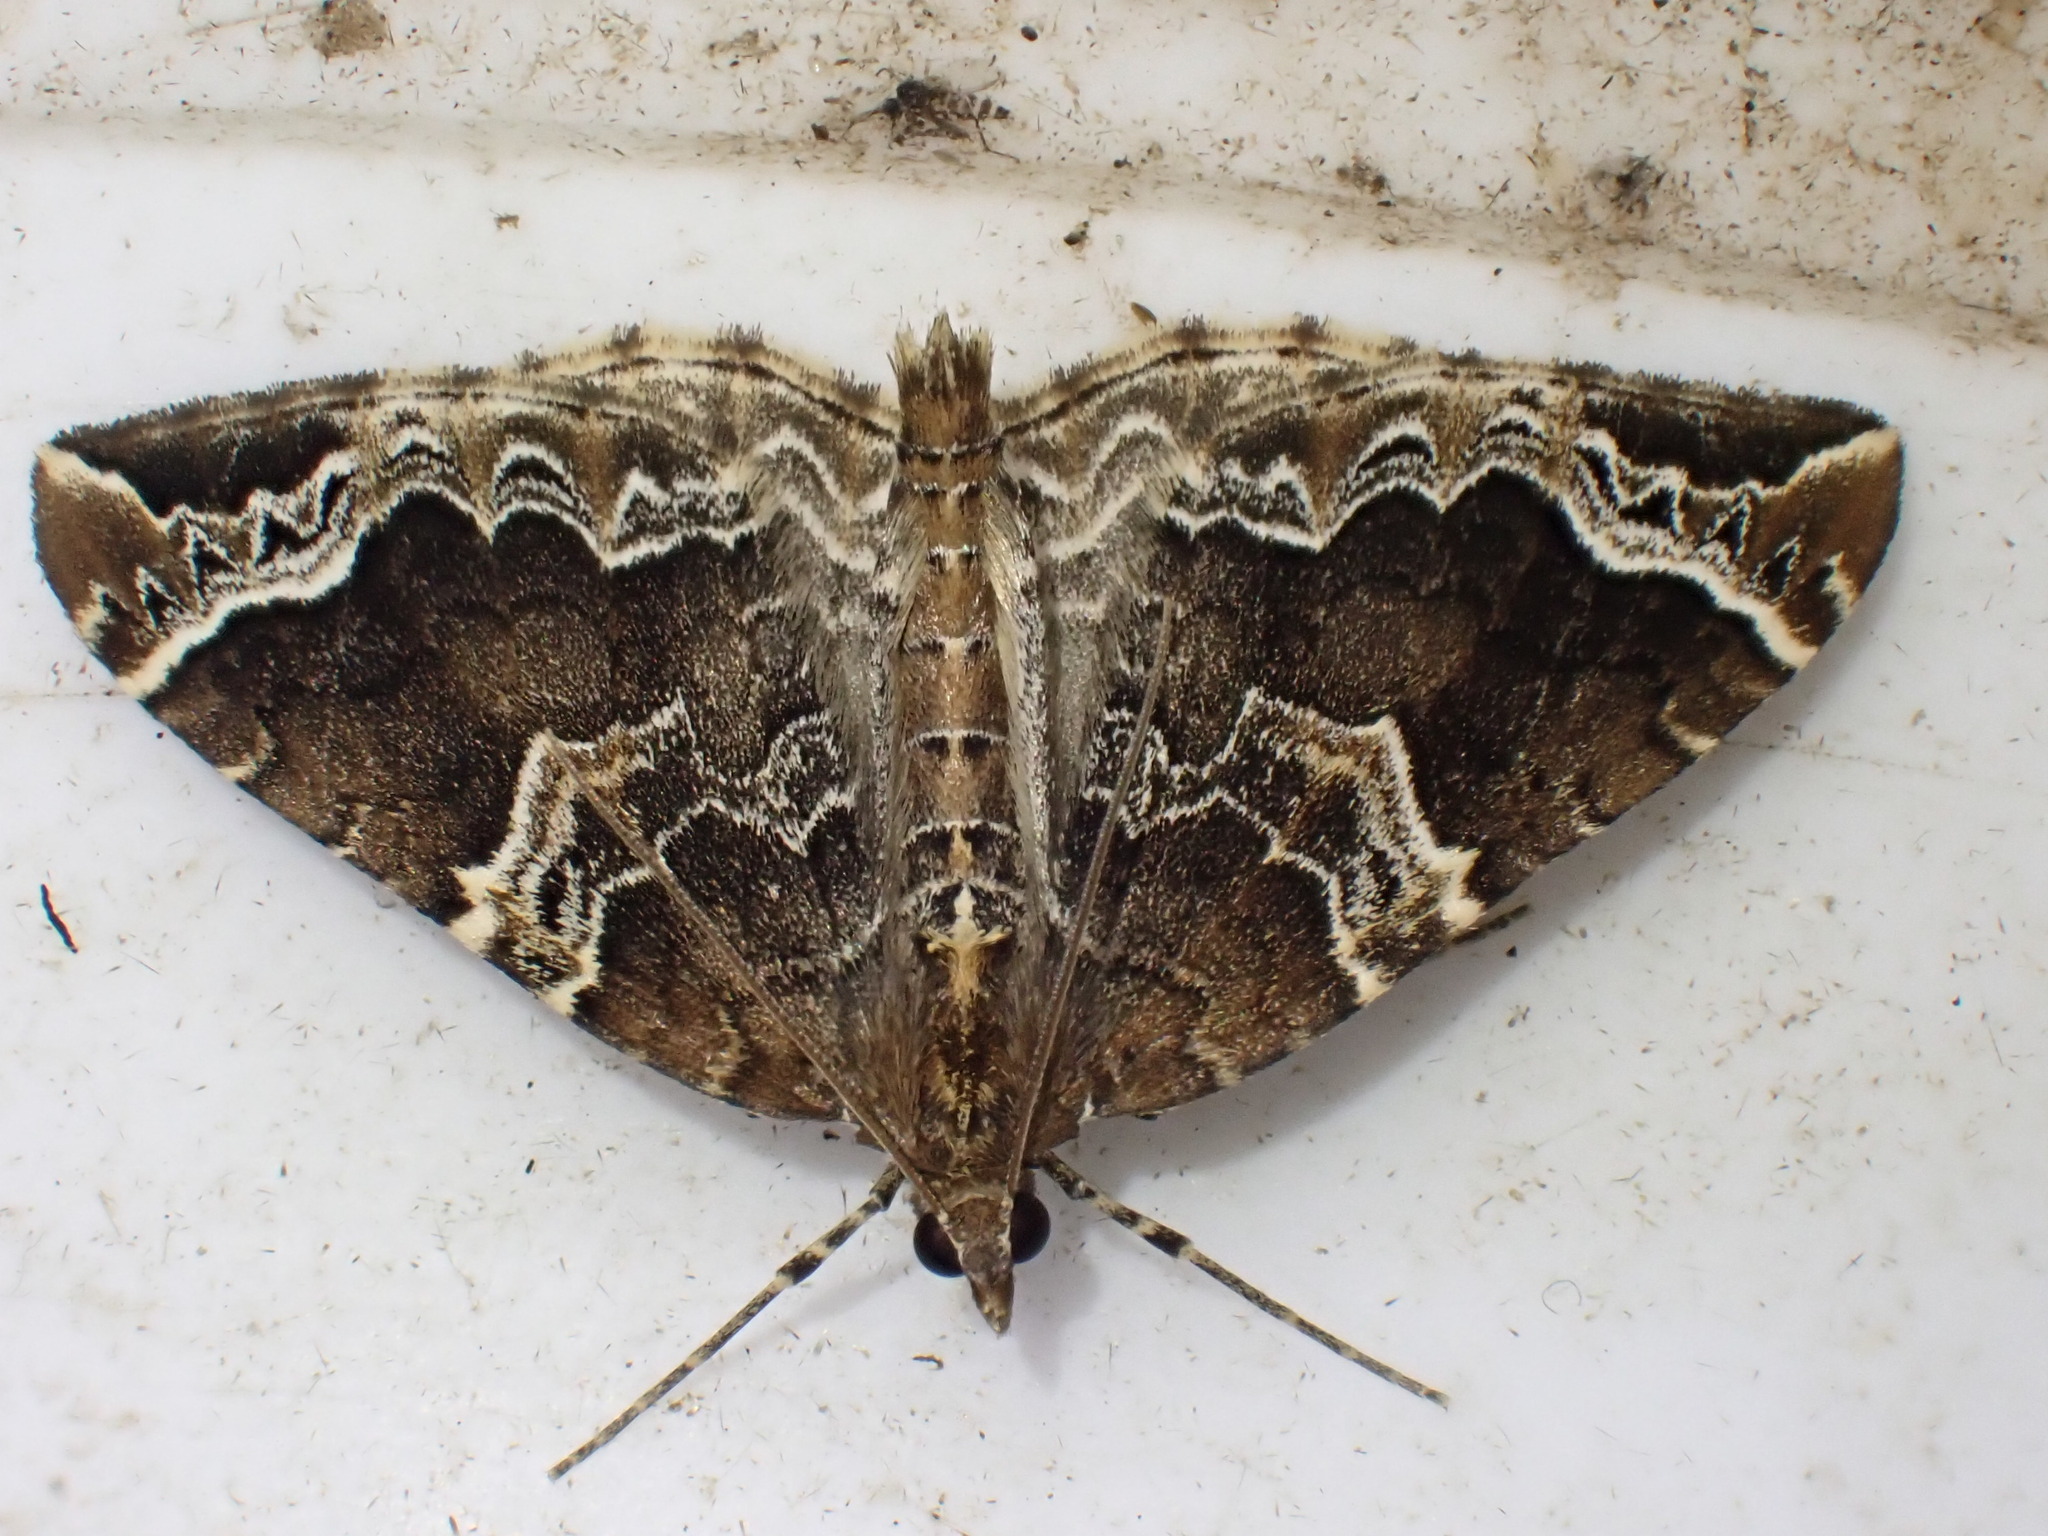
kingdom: Animalia
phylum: Arthropoda
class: Insecta
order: Lepidoptera
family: Geometridae
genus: Eulithis
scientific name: Eulithis prunata
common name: Phoenix
